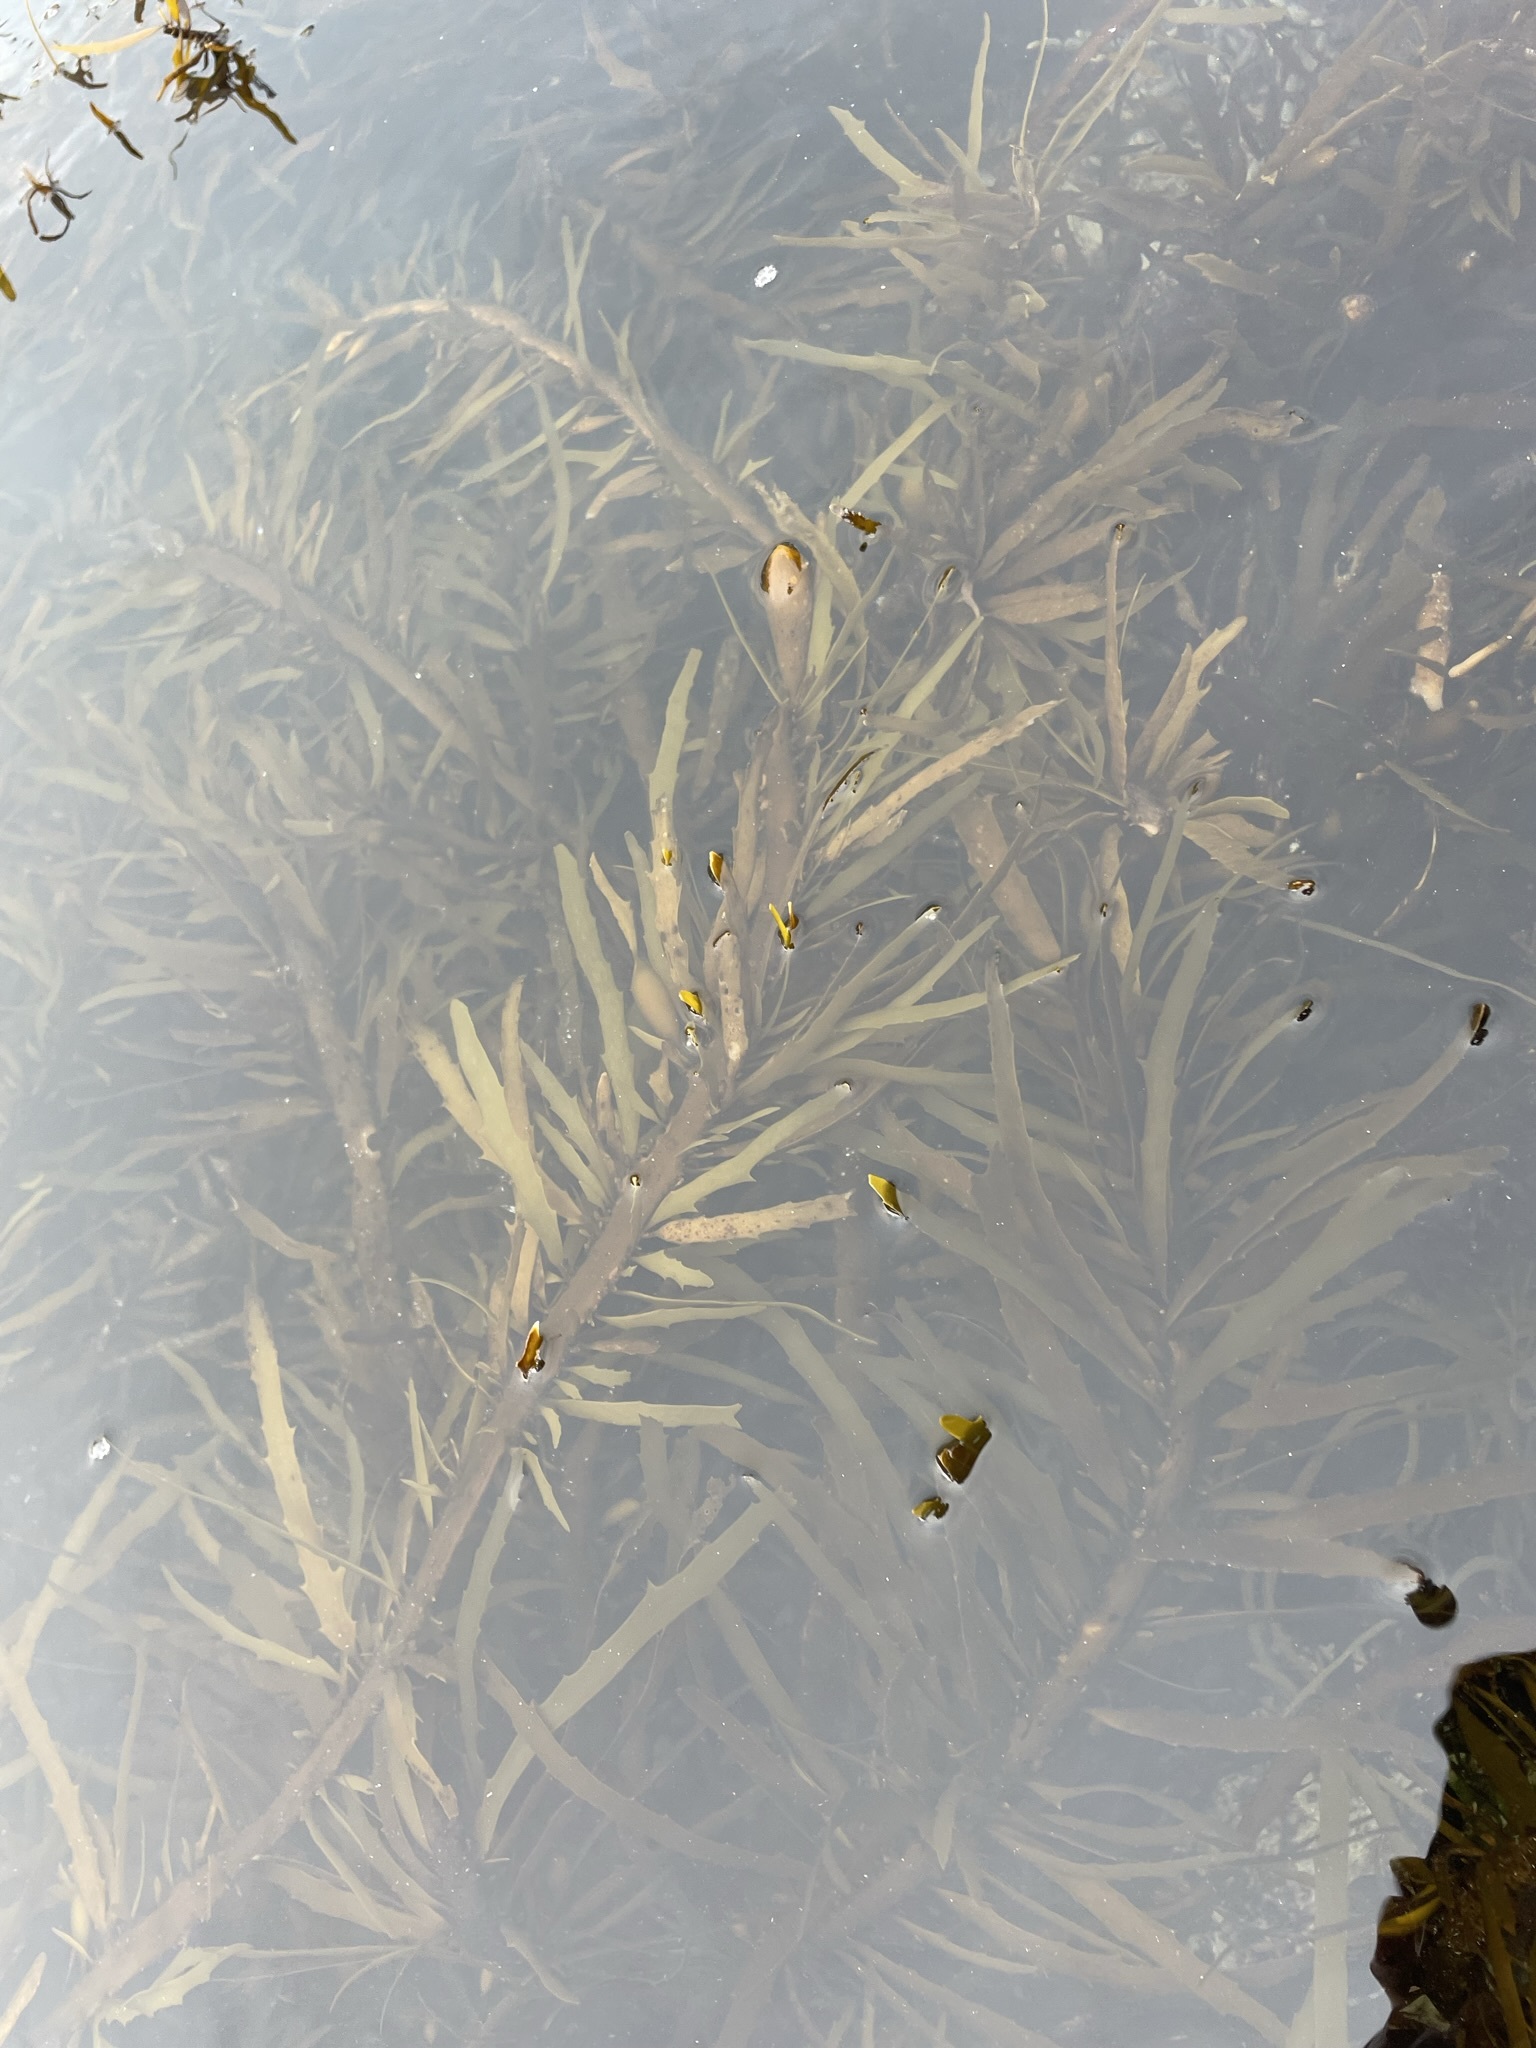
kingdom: Chromista
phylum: Ochrophyta
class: Phaeophyceae
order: Fucales
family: Seirococcaceae
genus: Phyllospora
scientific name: Phyllospora
